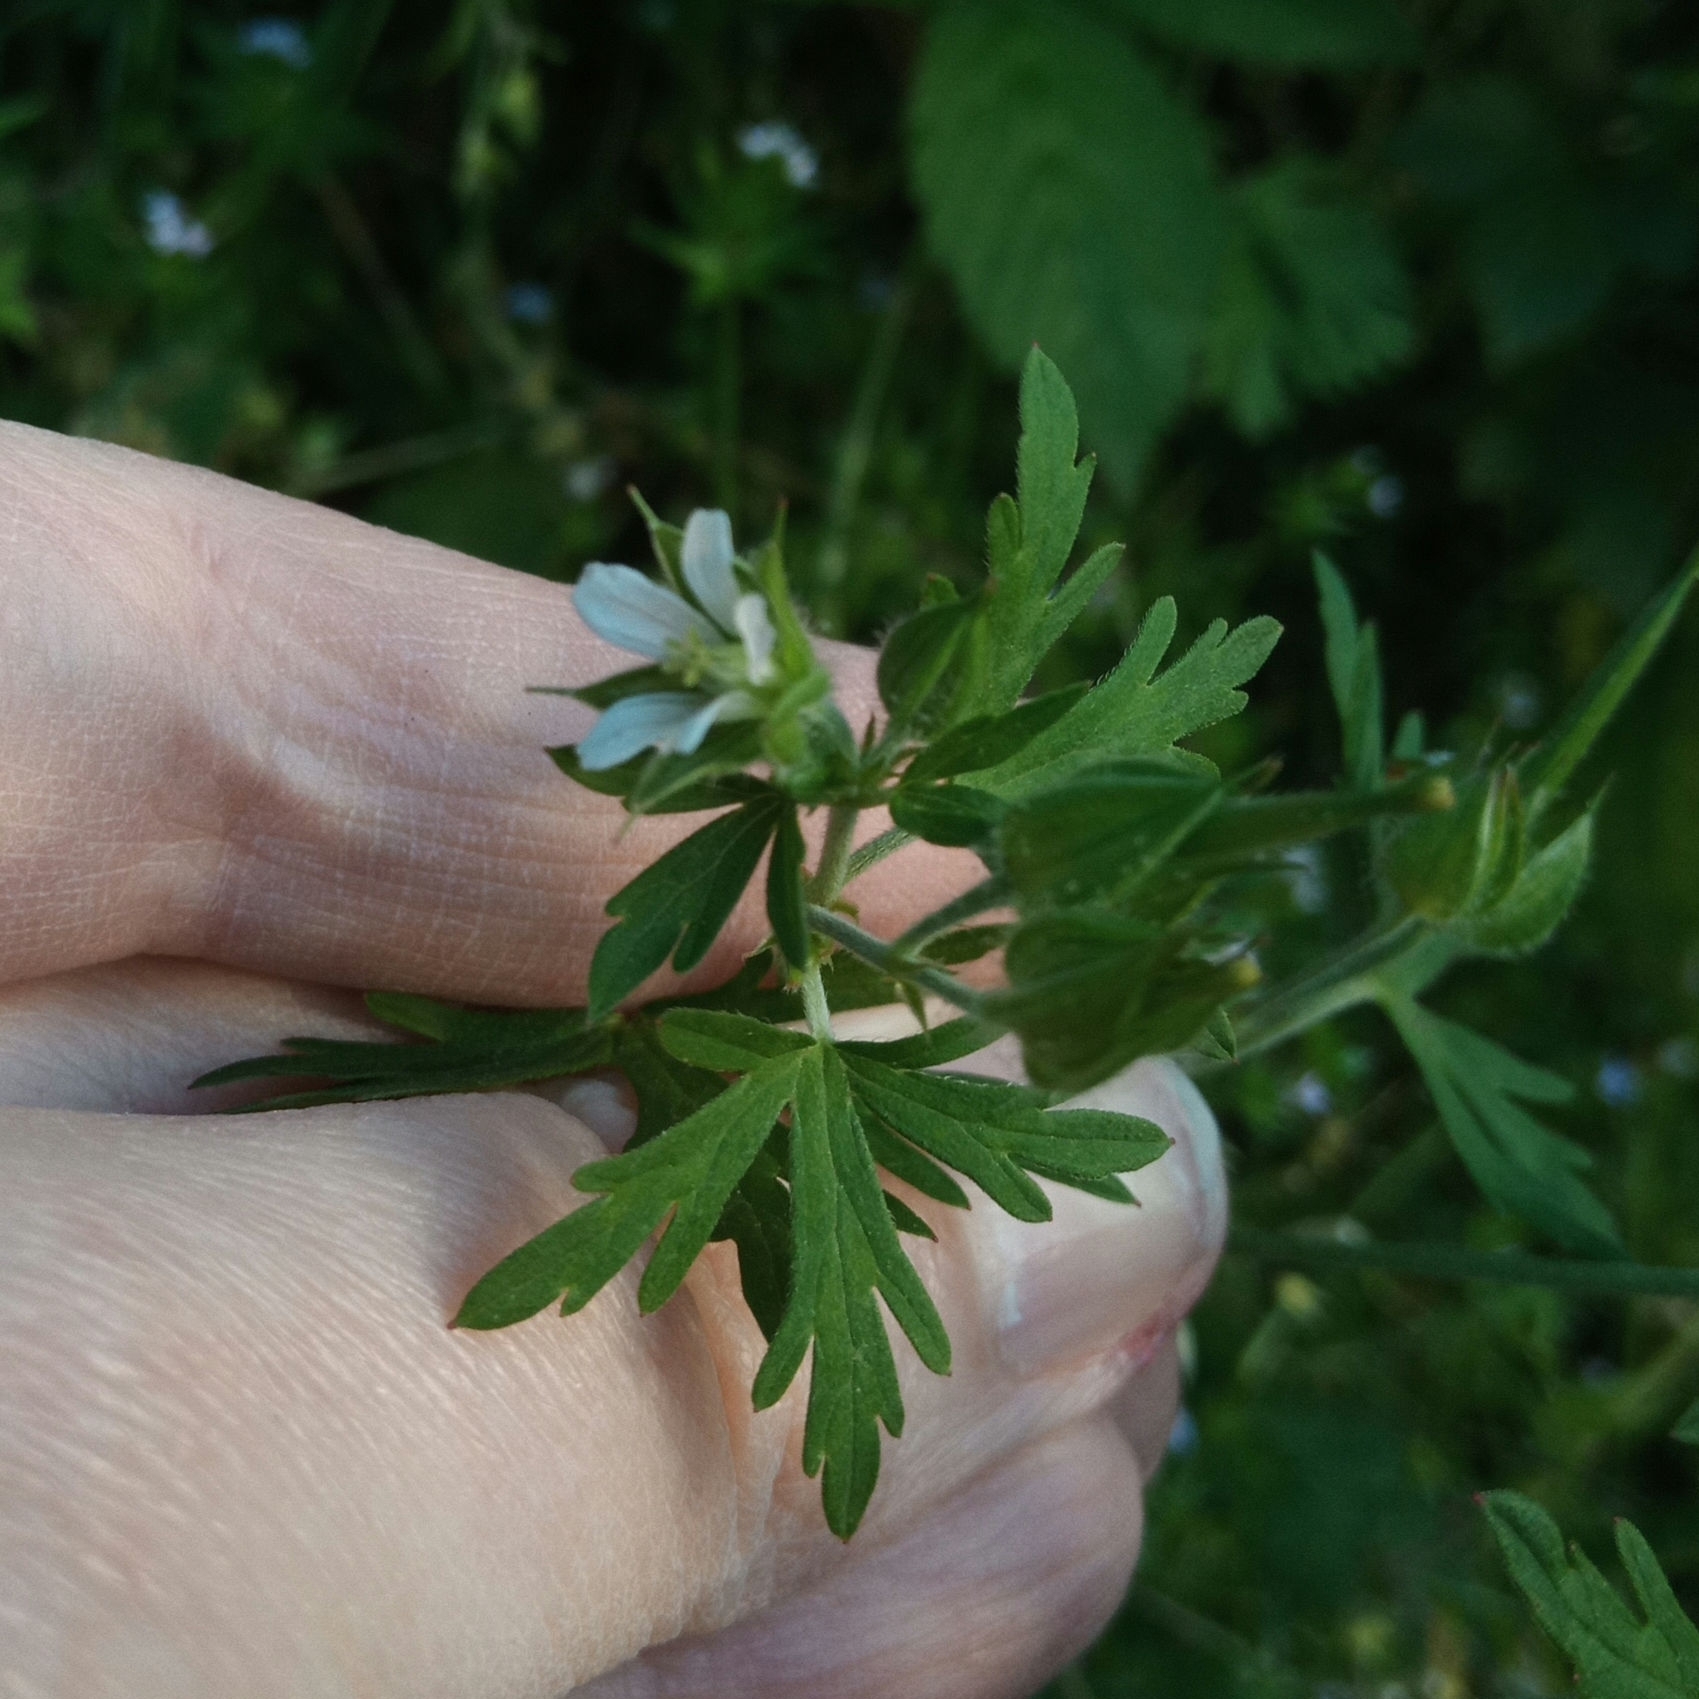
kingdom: Plantae
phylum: Tracheophyta
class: Magnoliopsida
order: Geraniales
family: Geraniaceae
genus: Geranium
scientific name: Geranium carolinianum
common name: Carolina crane's-bill
